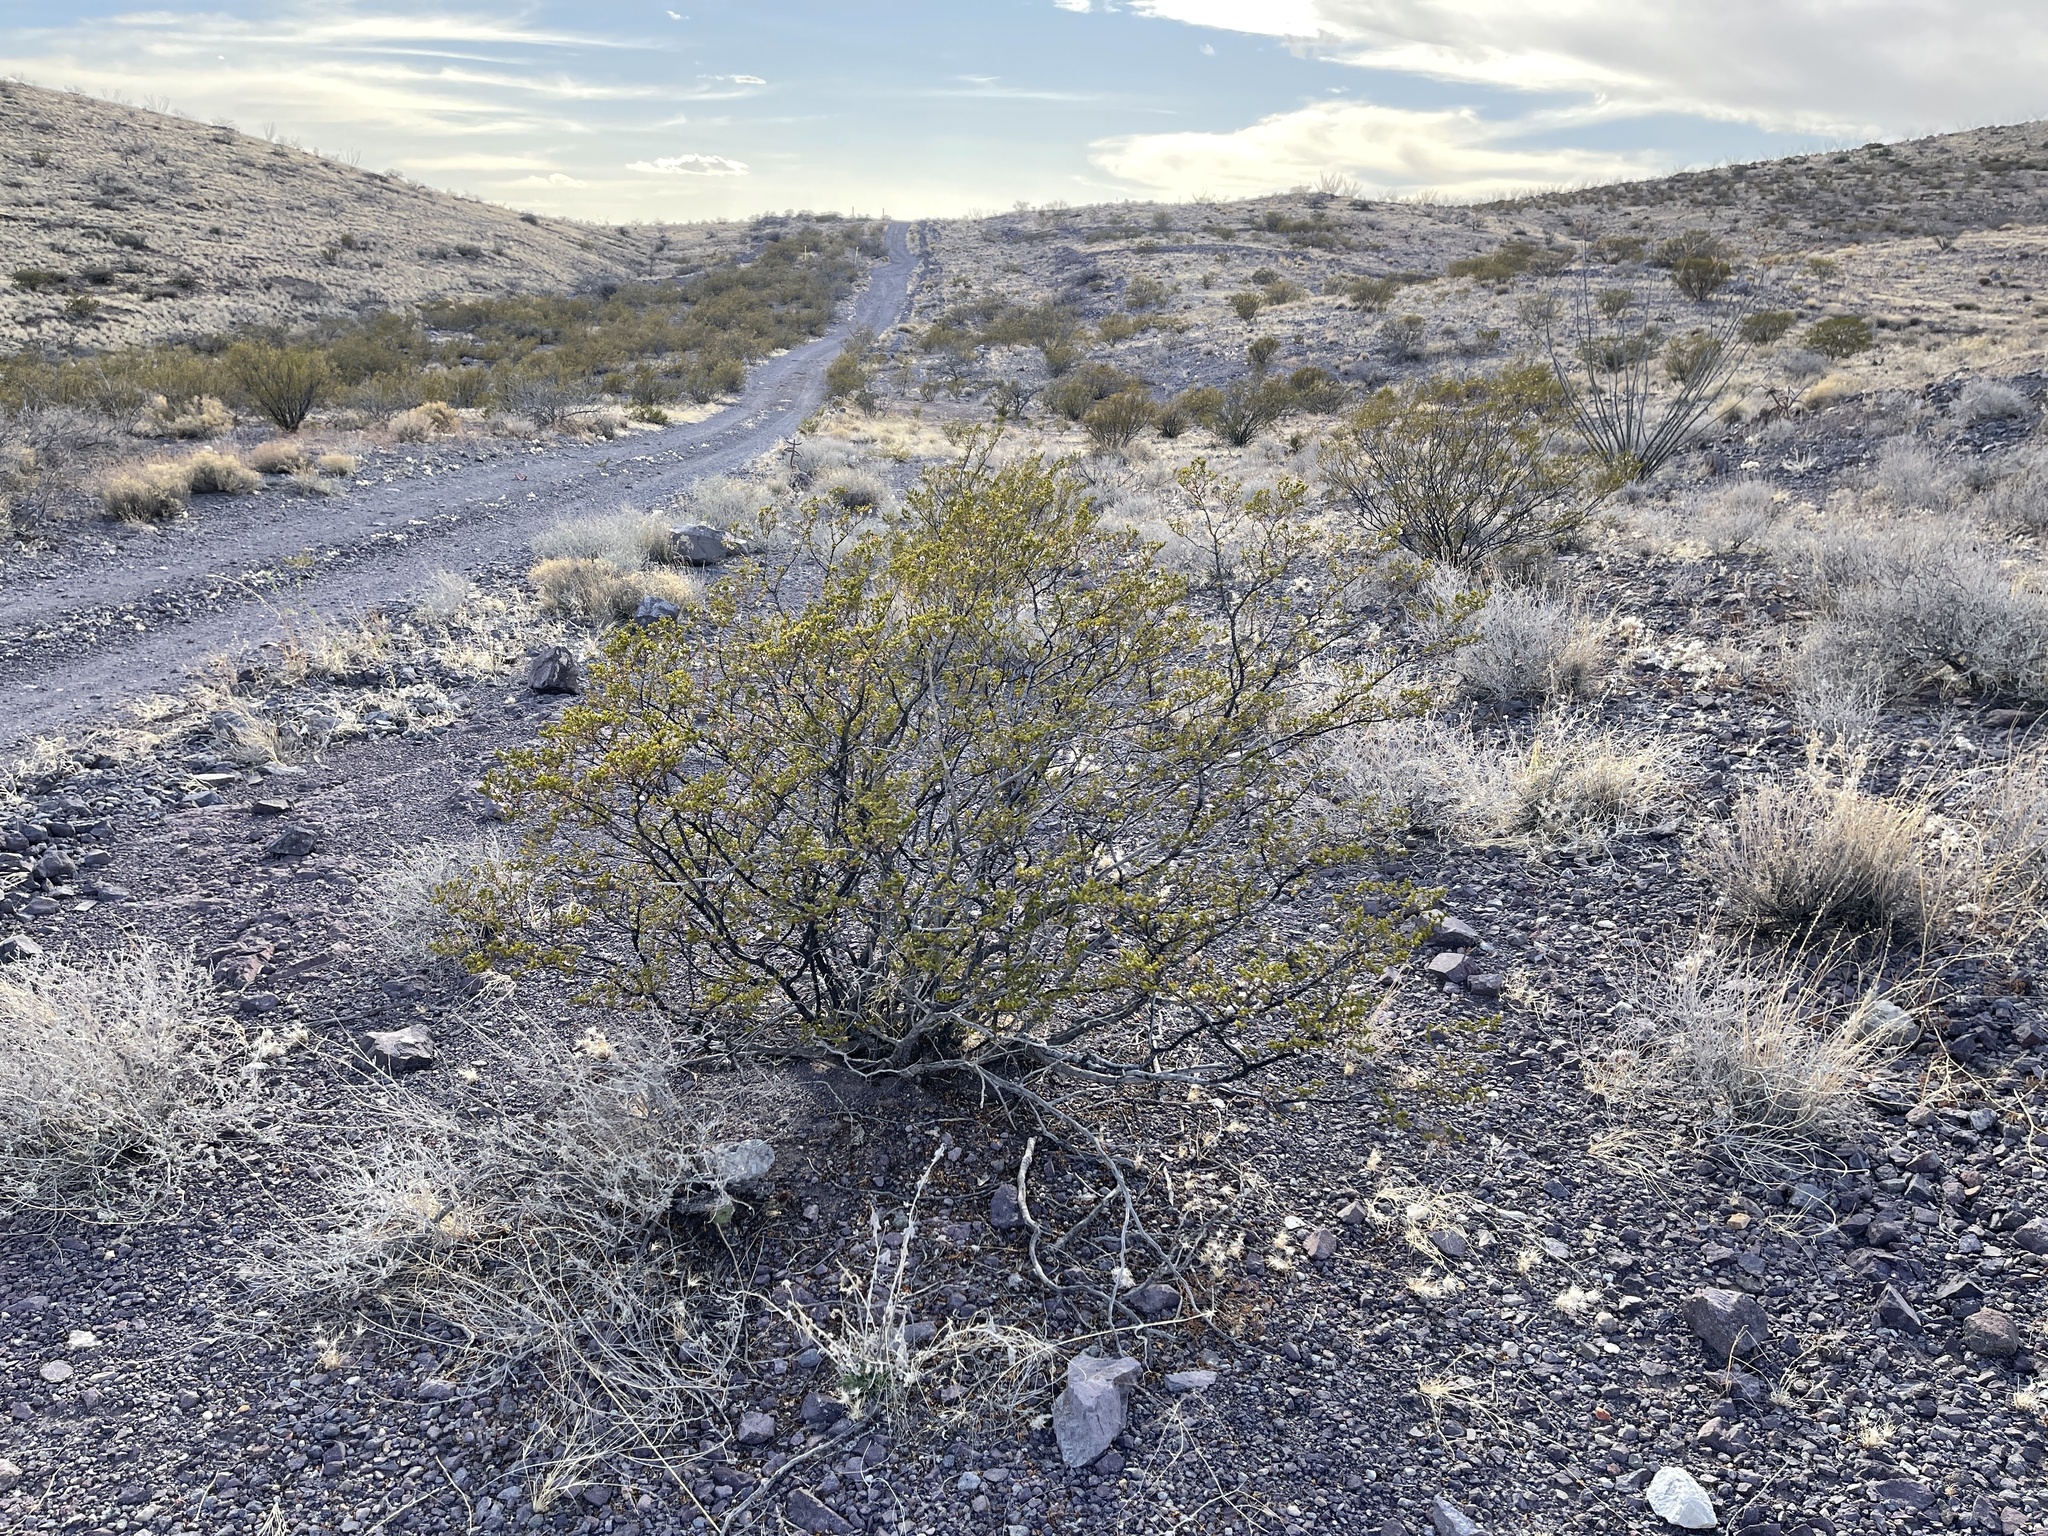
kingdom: Plantae
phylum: Tracheophyta
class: Magnoliopsida
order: Zygophyllales
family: Zygophyllaceae
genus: Larrea
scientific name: Larrea tridentata
